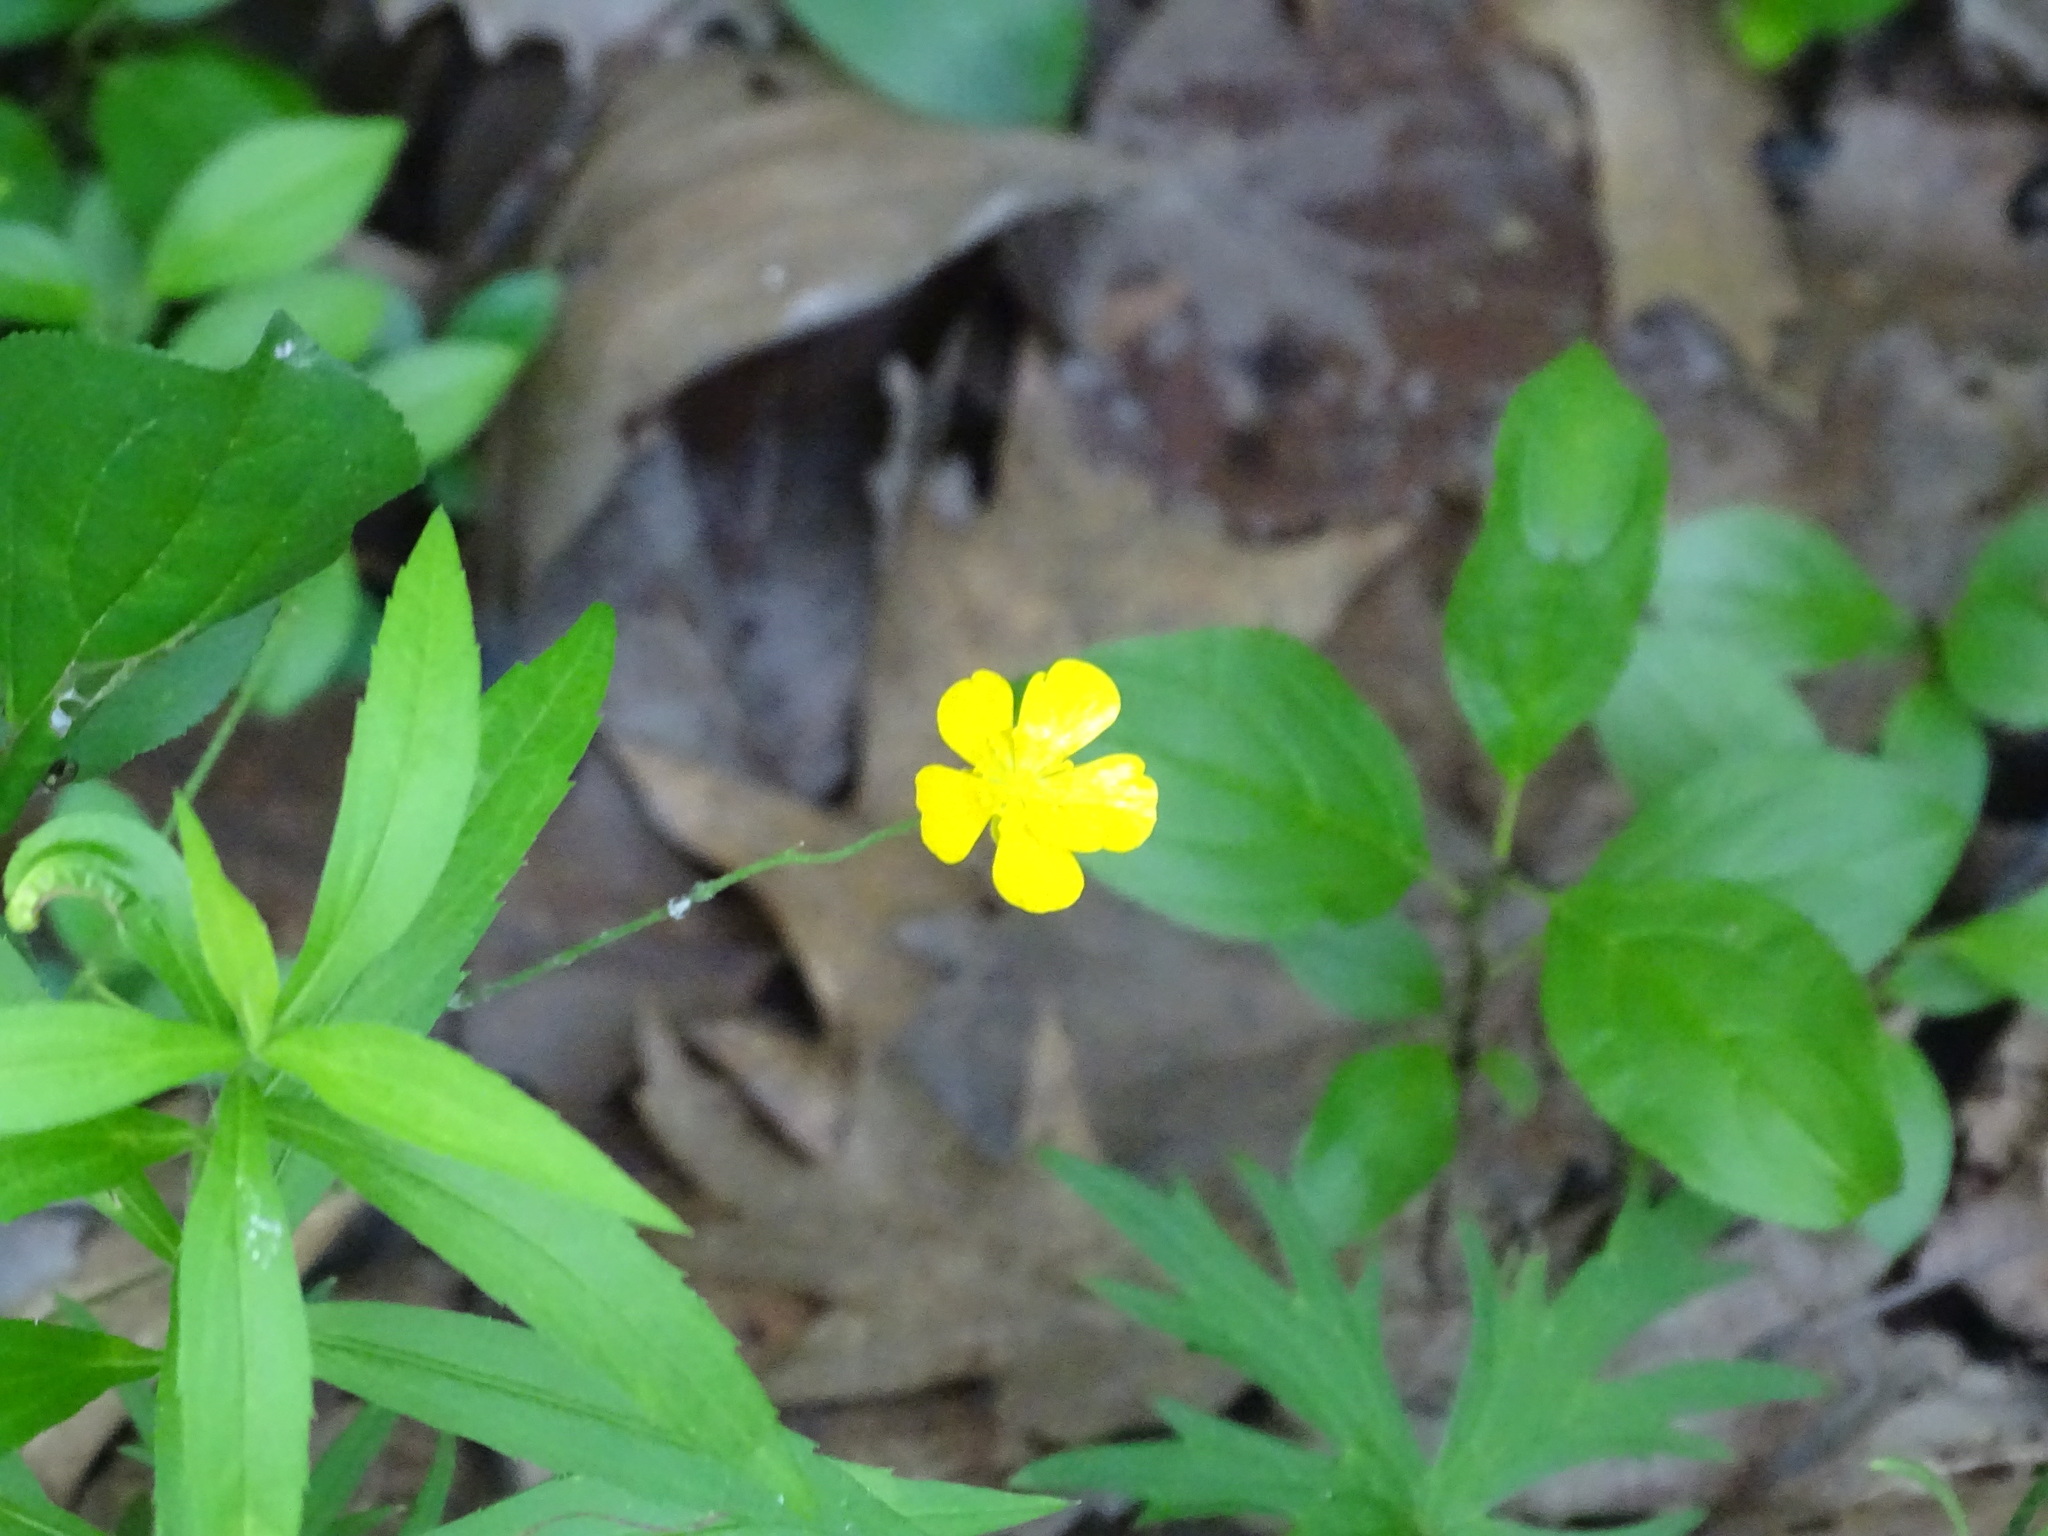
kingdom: Plantae
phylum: Tracheophyta
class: Magnoliopsida
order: Ranunculales
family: Ranunculaceae
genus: Ranunculus
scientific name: Ranunculus acris
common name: Meadow buttercup
